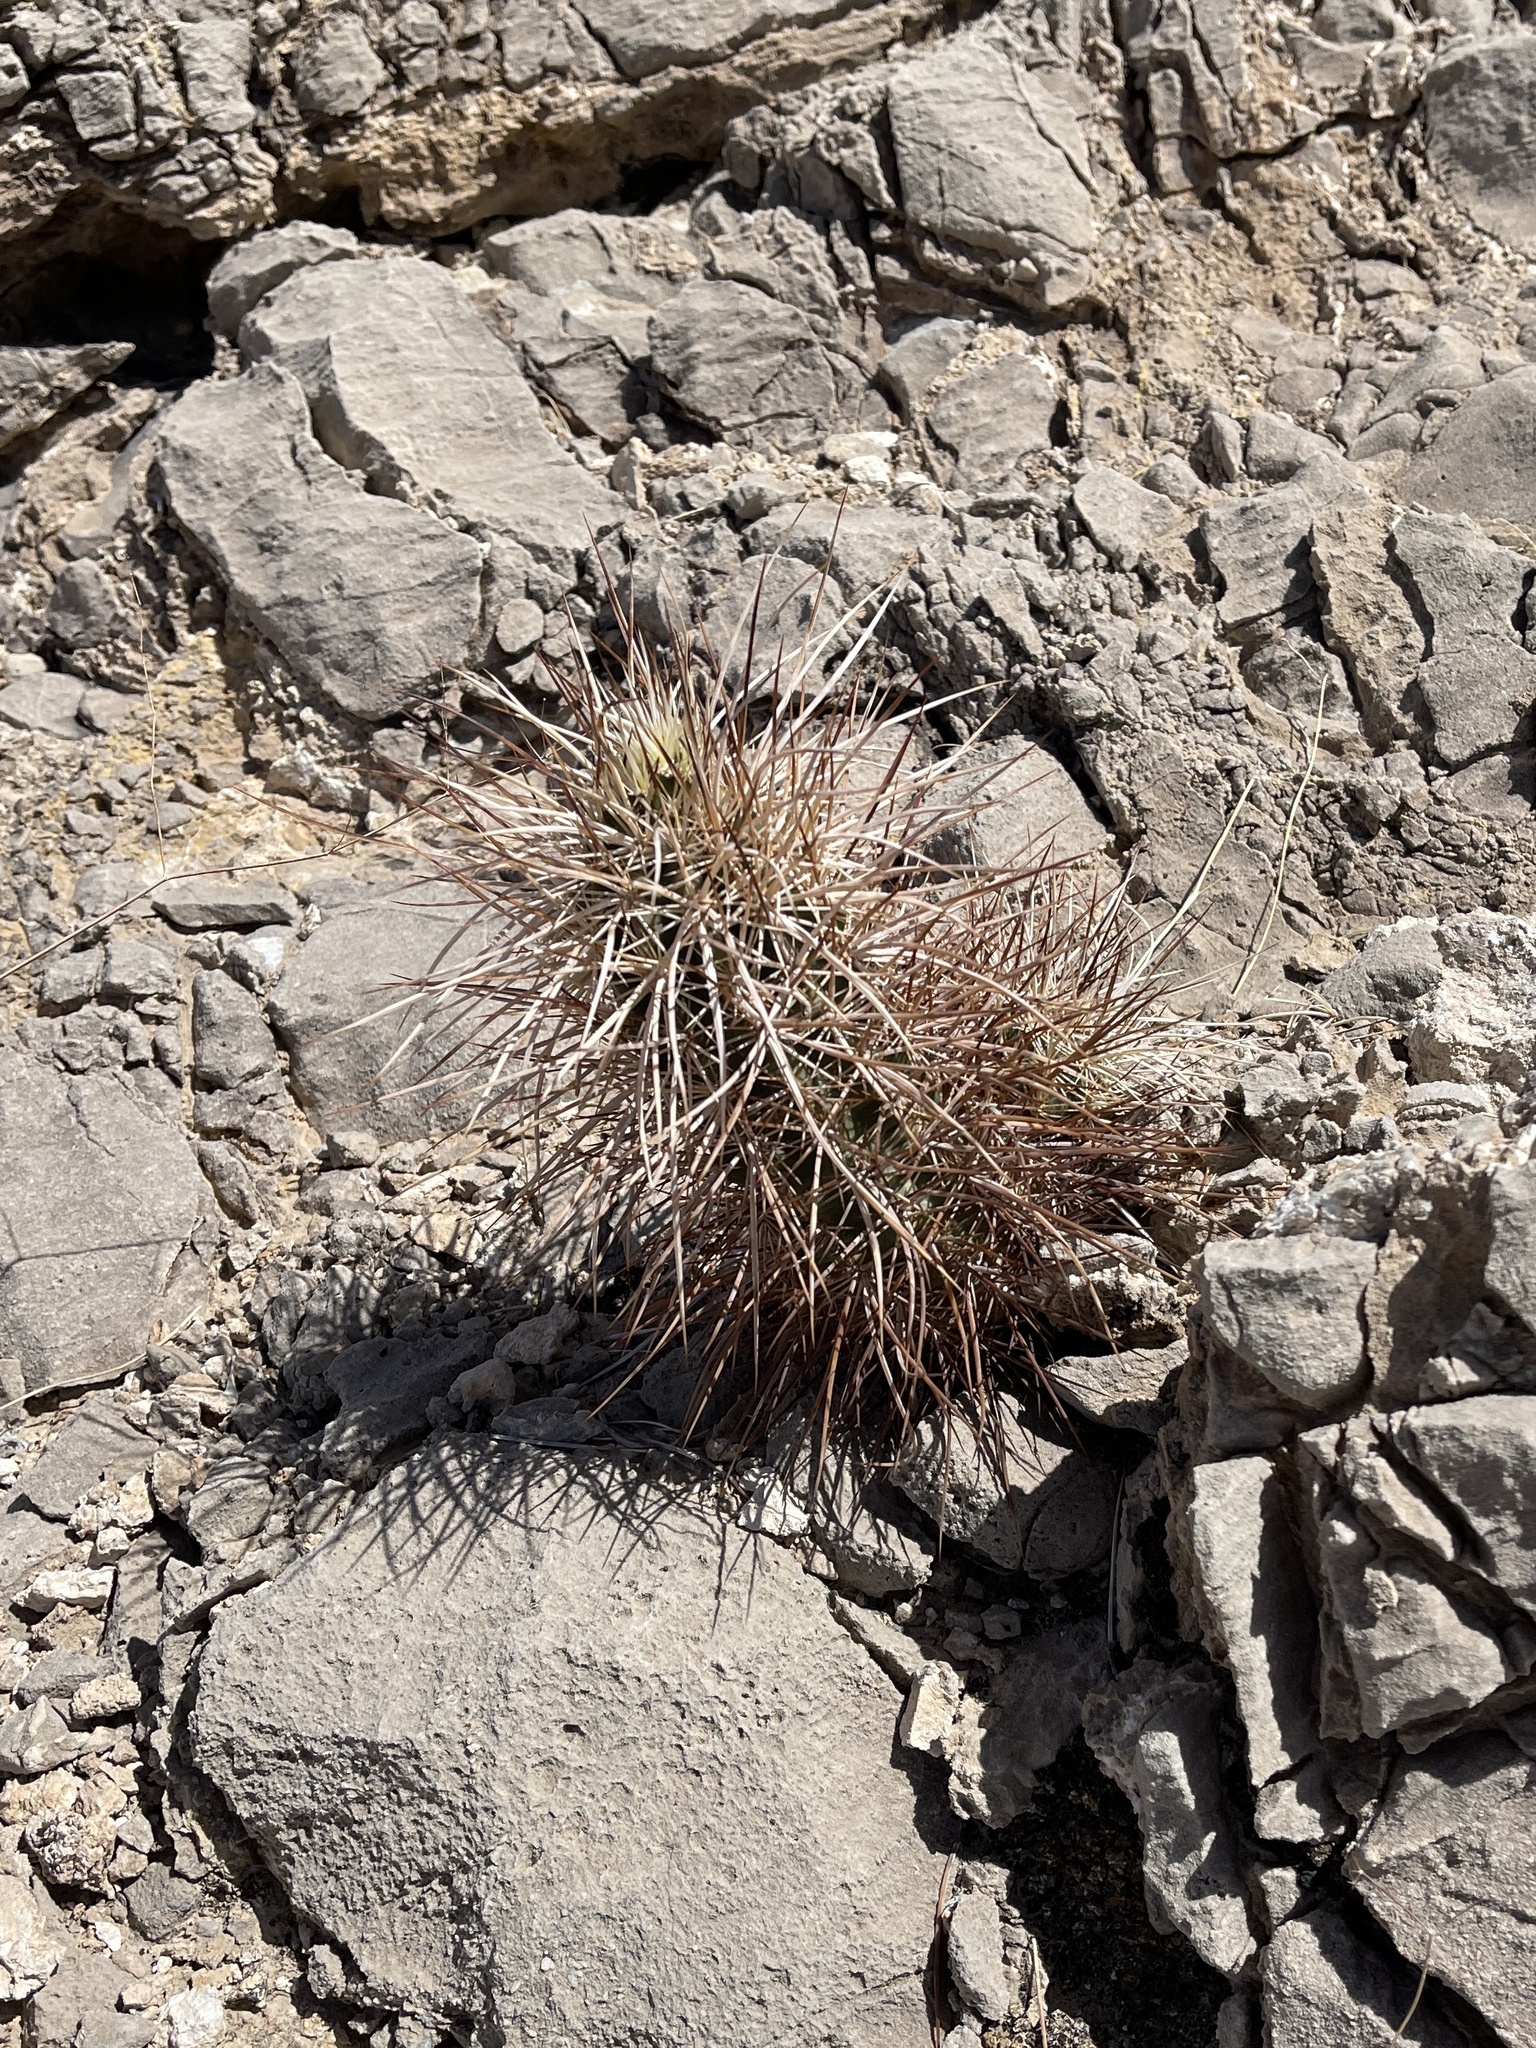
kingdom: Plantae
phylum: Tracheophyta
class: Magnoliopsida
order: Caryophyllales
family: Cactaceae
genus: Echinocereus
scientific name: Echinocereus engelmannii
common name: Engelmann's hedgehog cactus
